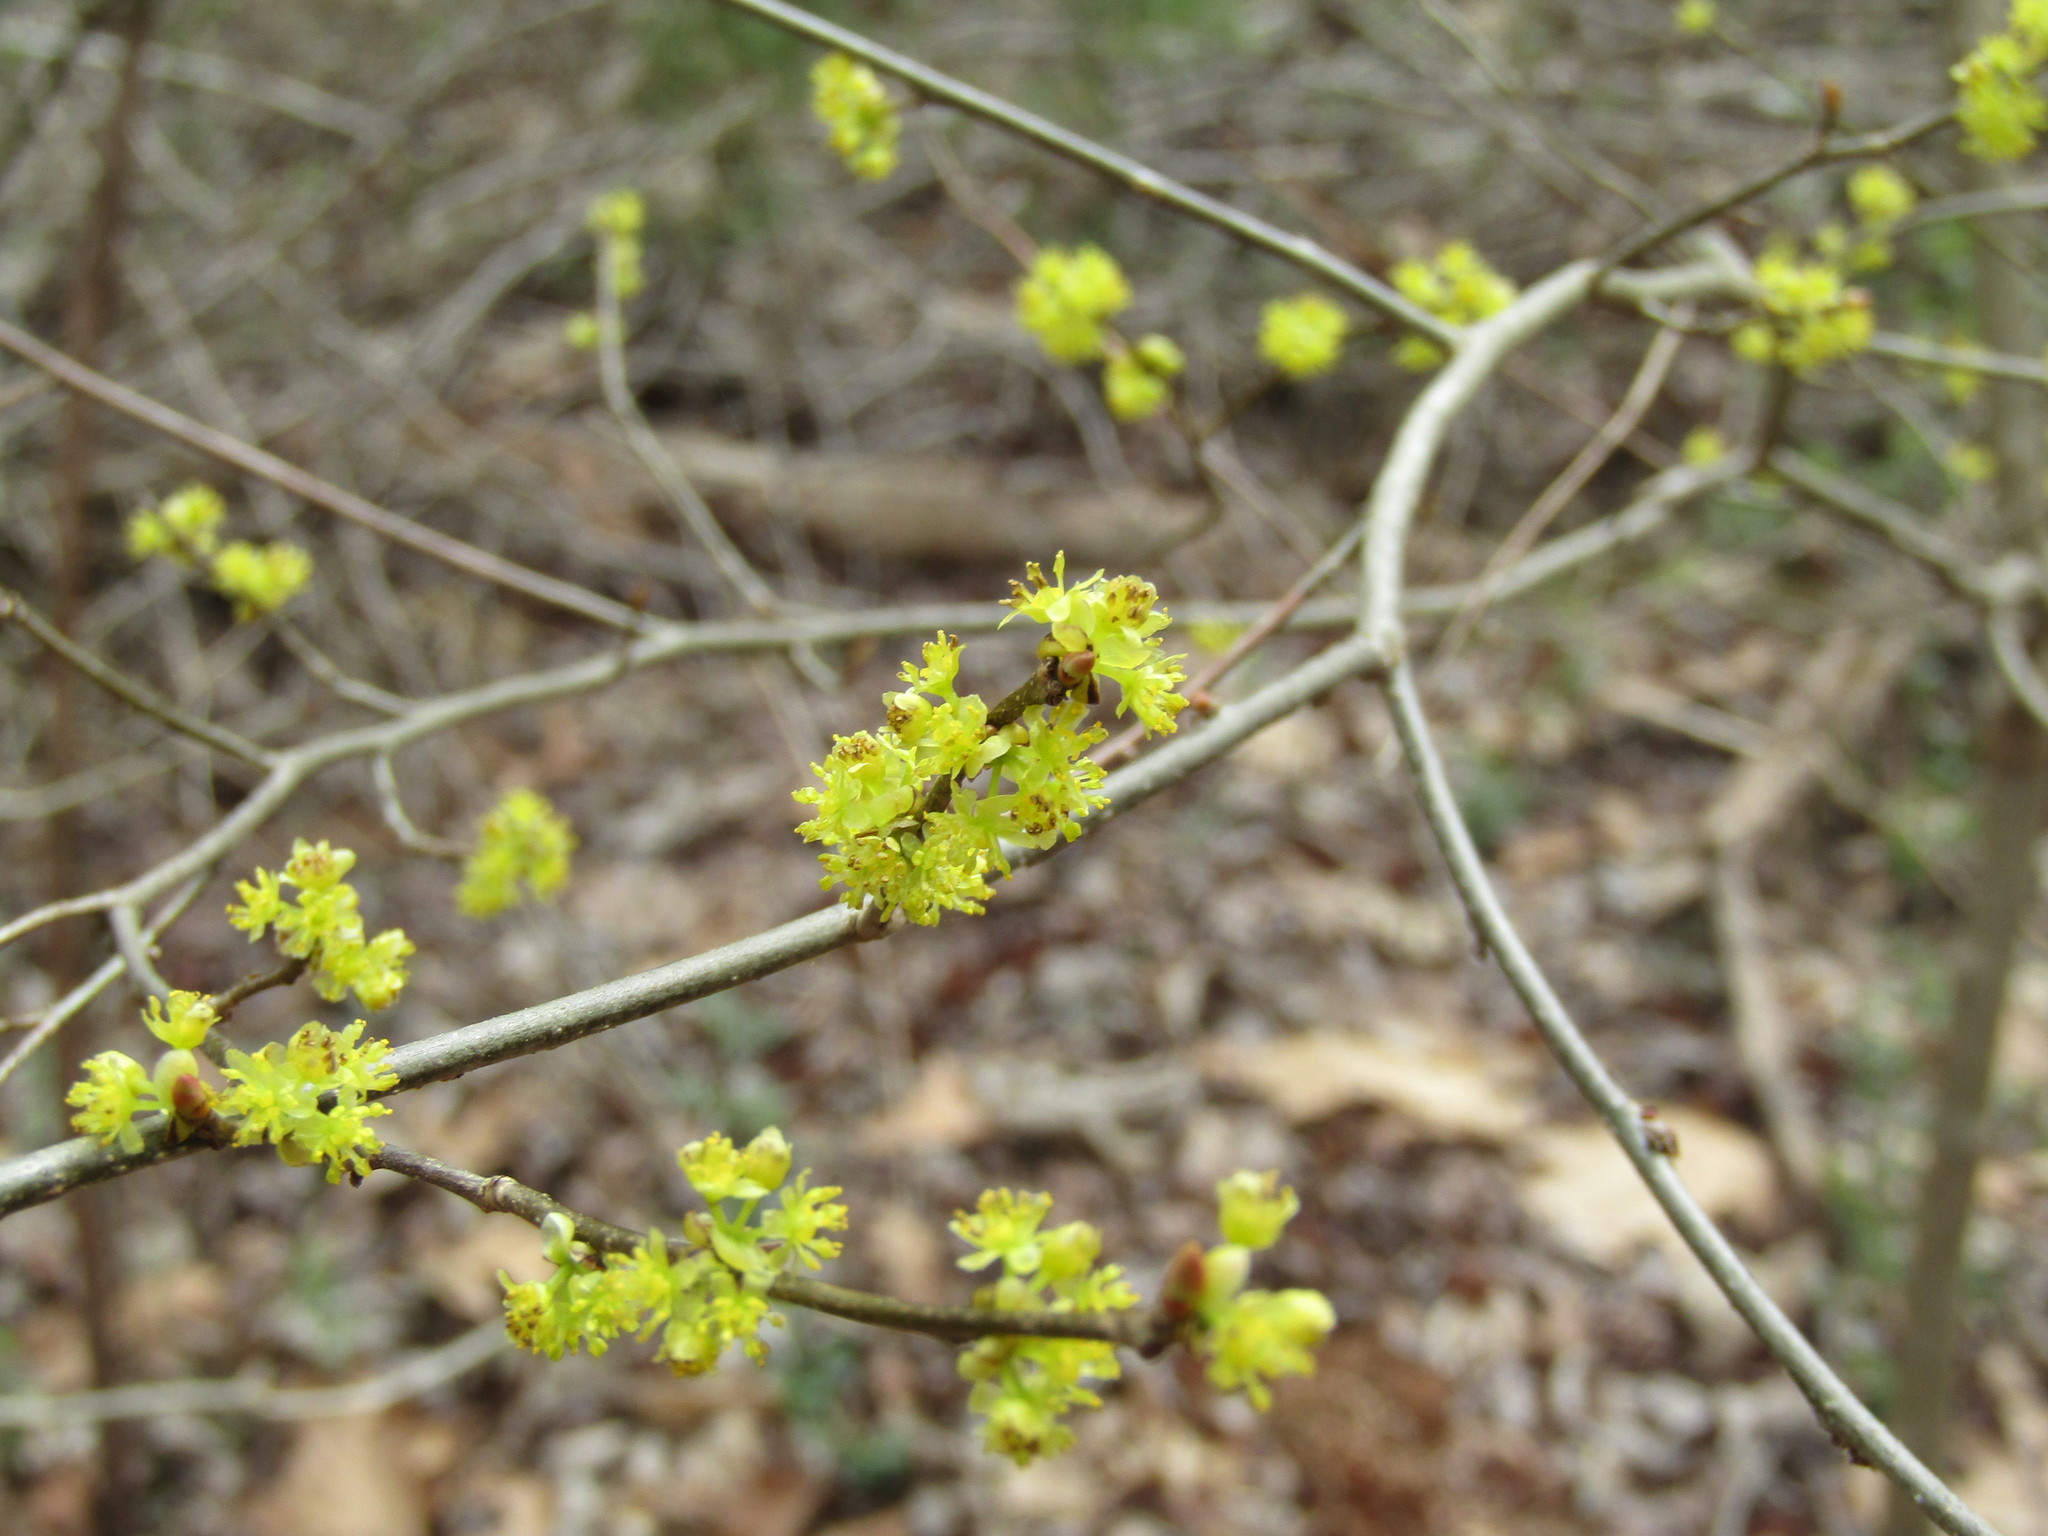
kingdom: Plantae
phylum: Tracheophyta
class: Magnoliopsida
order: Laurales
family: Lauraceae
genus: Lindera
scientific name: Lindera benzoin
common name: Spicebush
